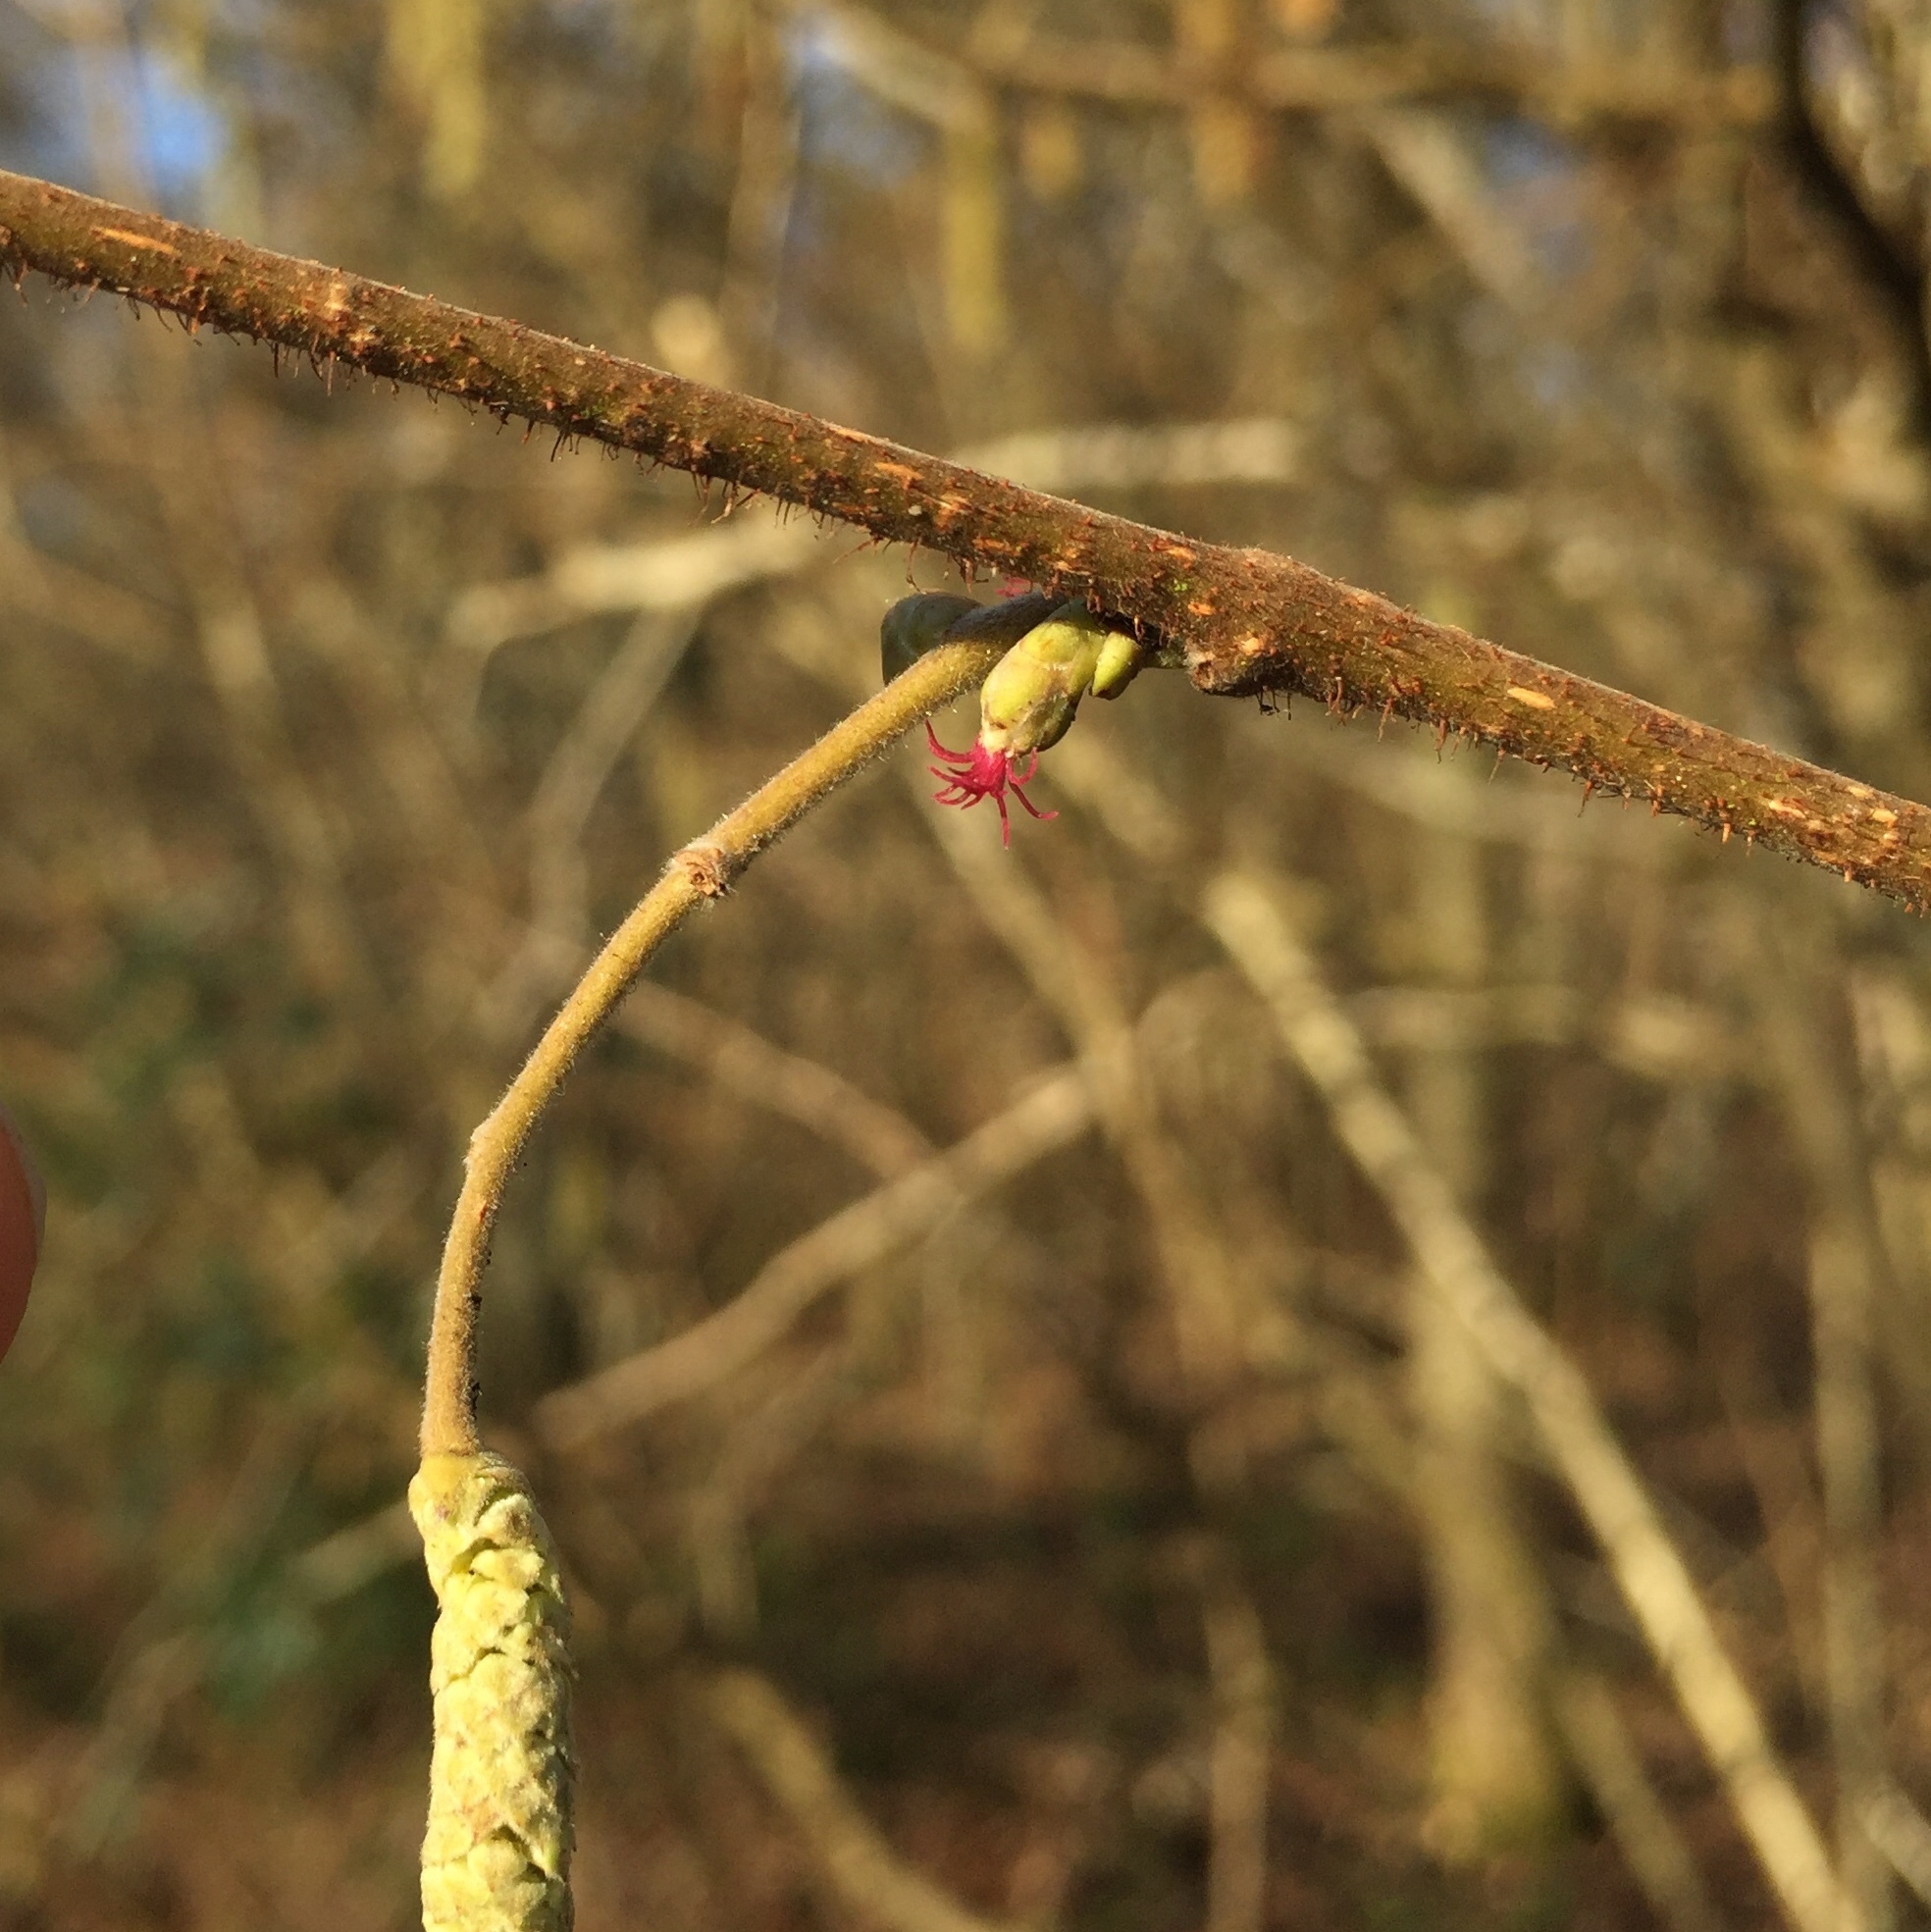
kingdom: Plantae
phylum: Tracheophyta
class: Magnoliopsida
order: Fagales
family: Betulaceae
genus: Corylus
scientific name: Corylus avellana
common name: European hazel
